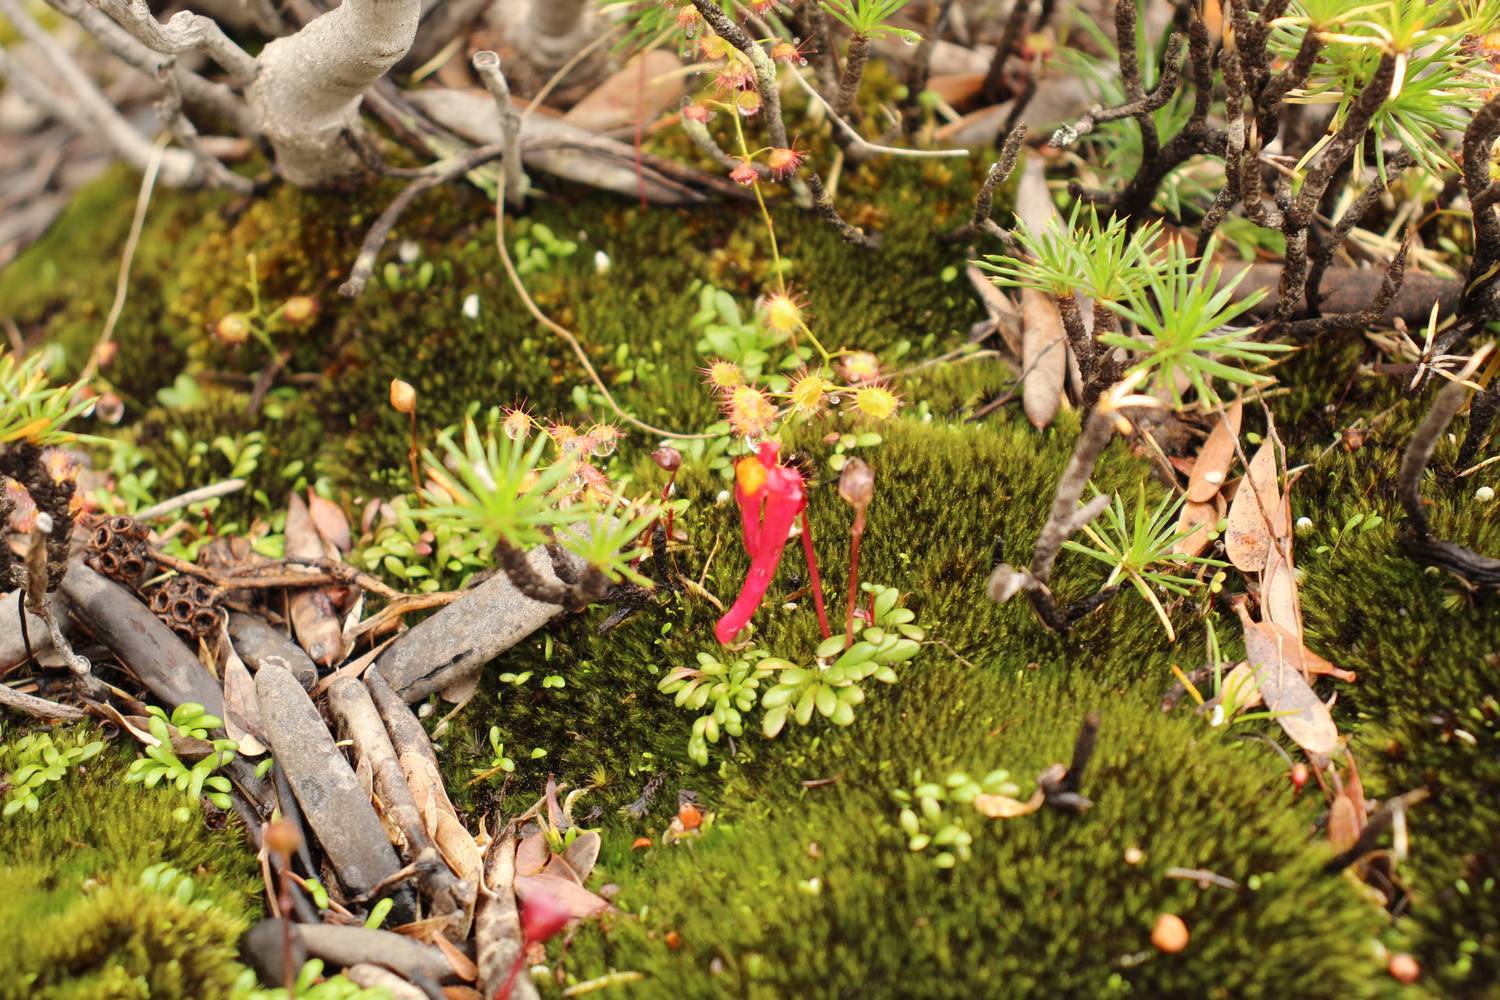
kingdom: Plantae
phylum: Tracheophyta
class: Magnoliopsida
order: Lamiales
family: Lentibulariaceae
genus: Utricularia
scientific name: Utricularia menziesii
